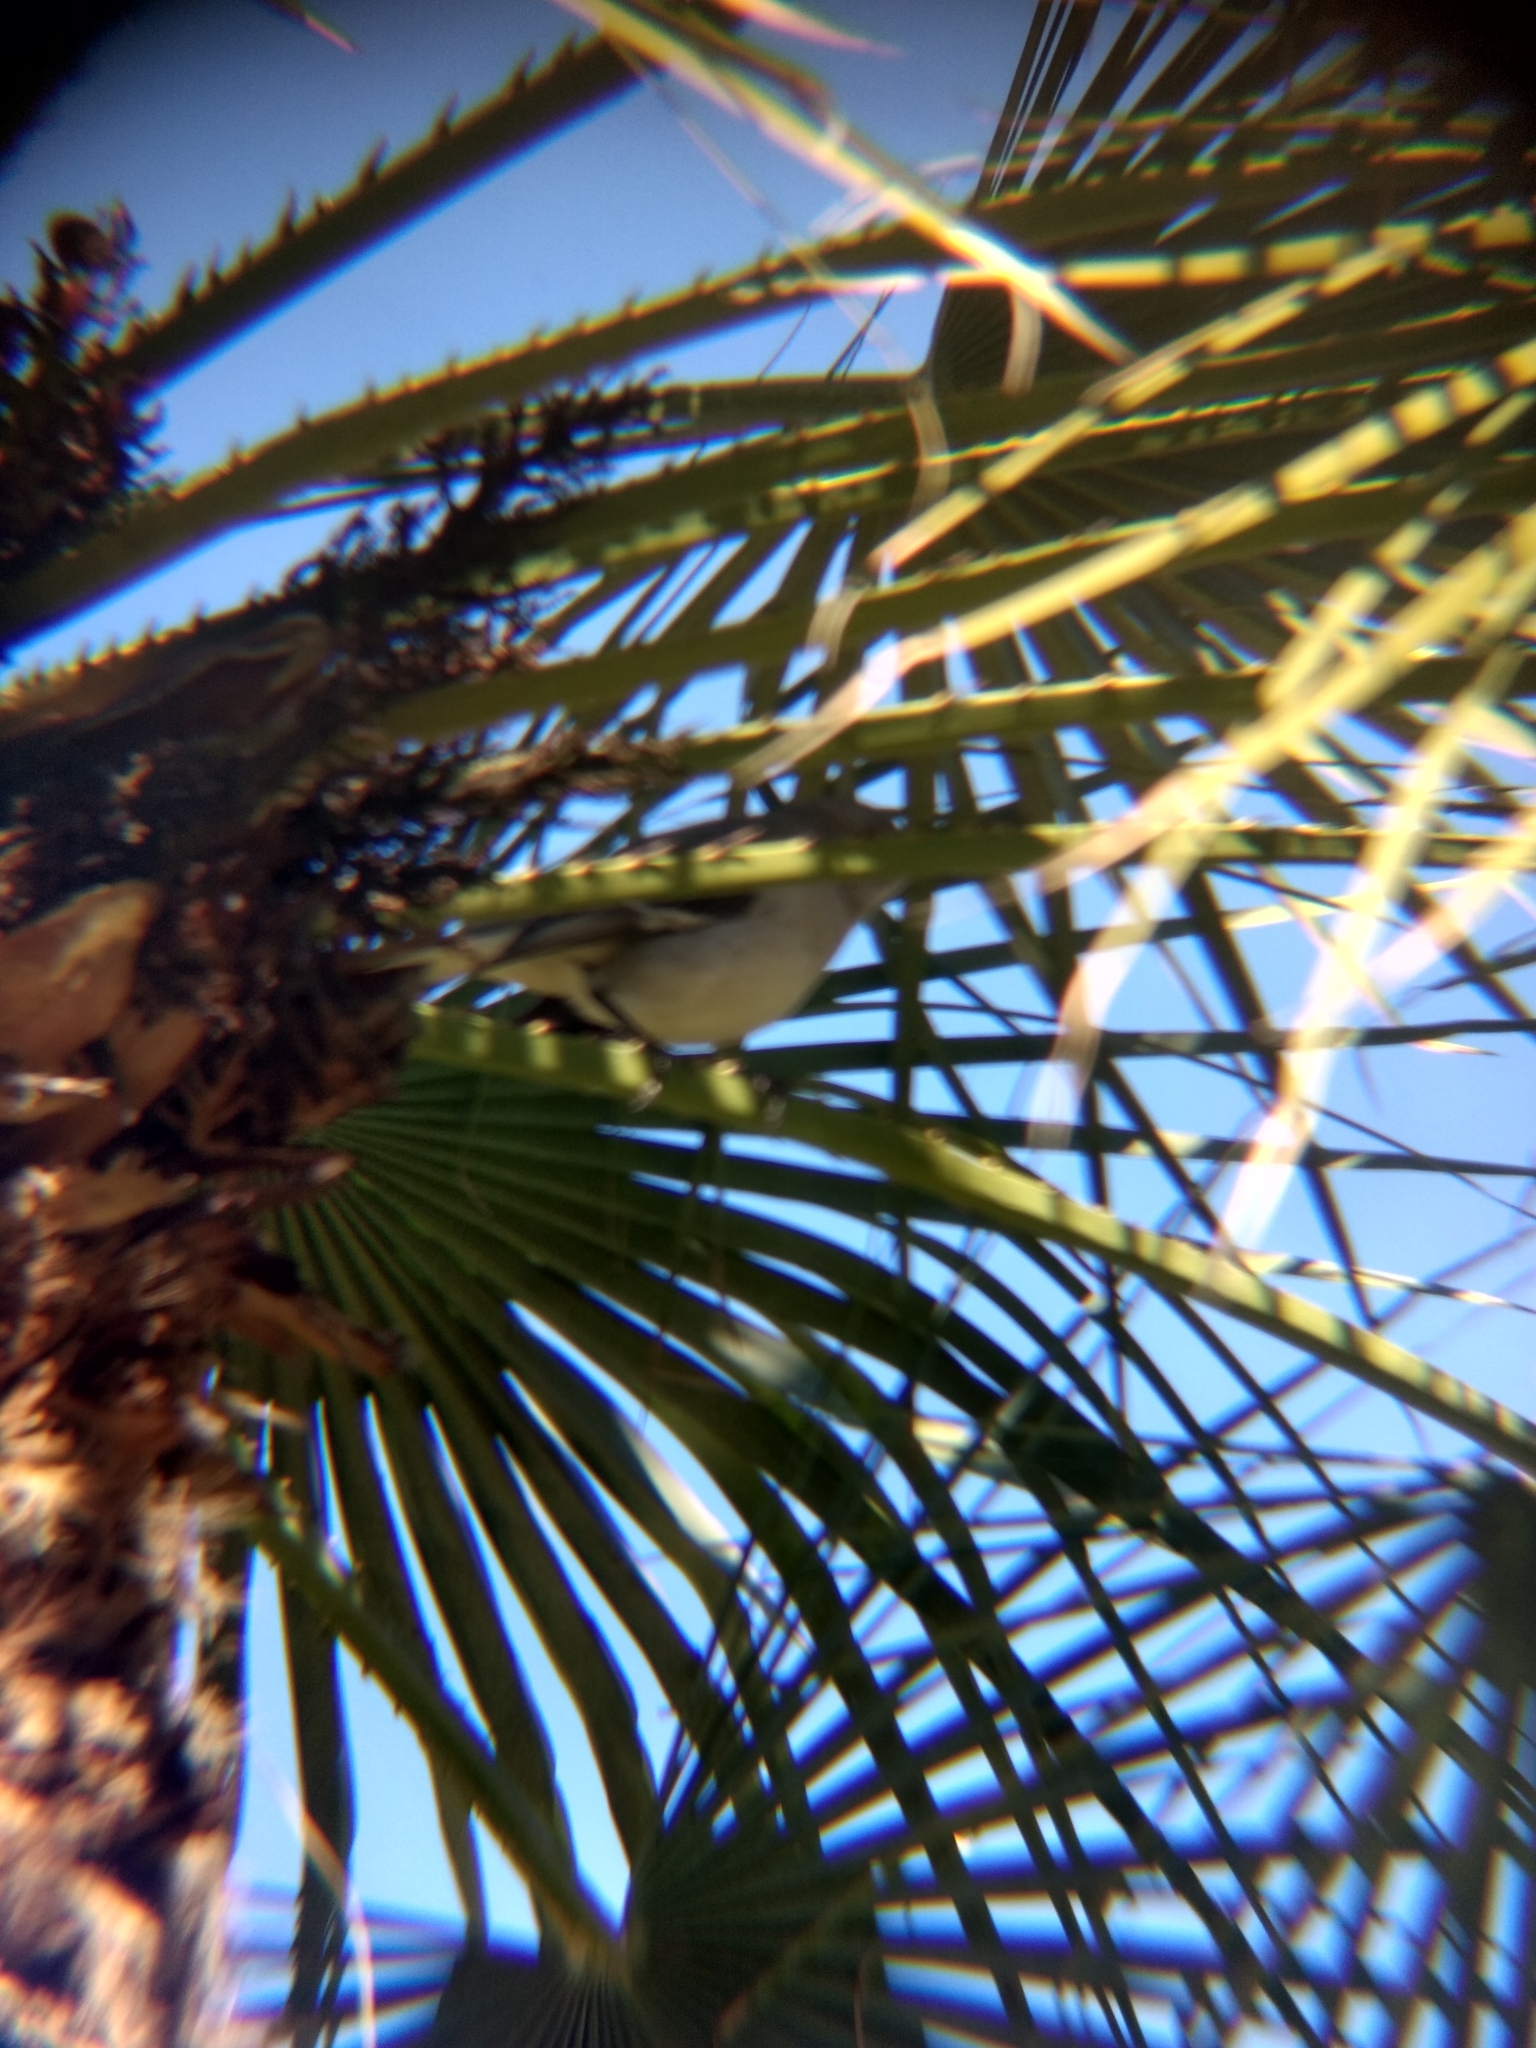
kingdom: Animalia
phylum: Chordata
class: Aves
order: Passeriformes
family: Mimidae
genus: Mimus
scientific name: Mimus polyglottos
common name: Northern mockingbird
